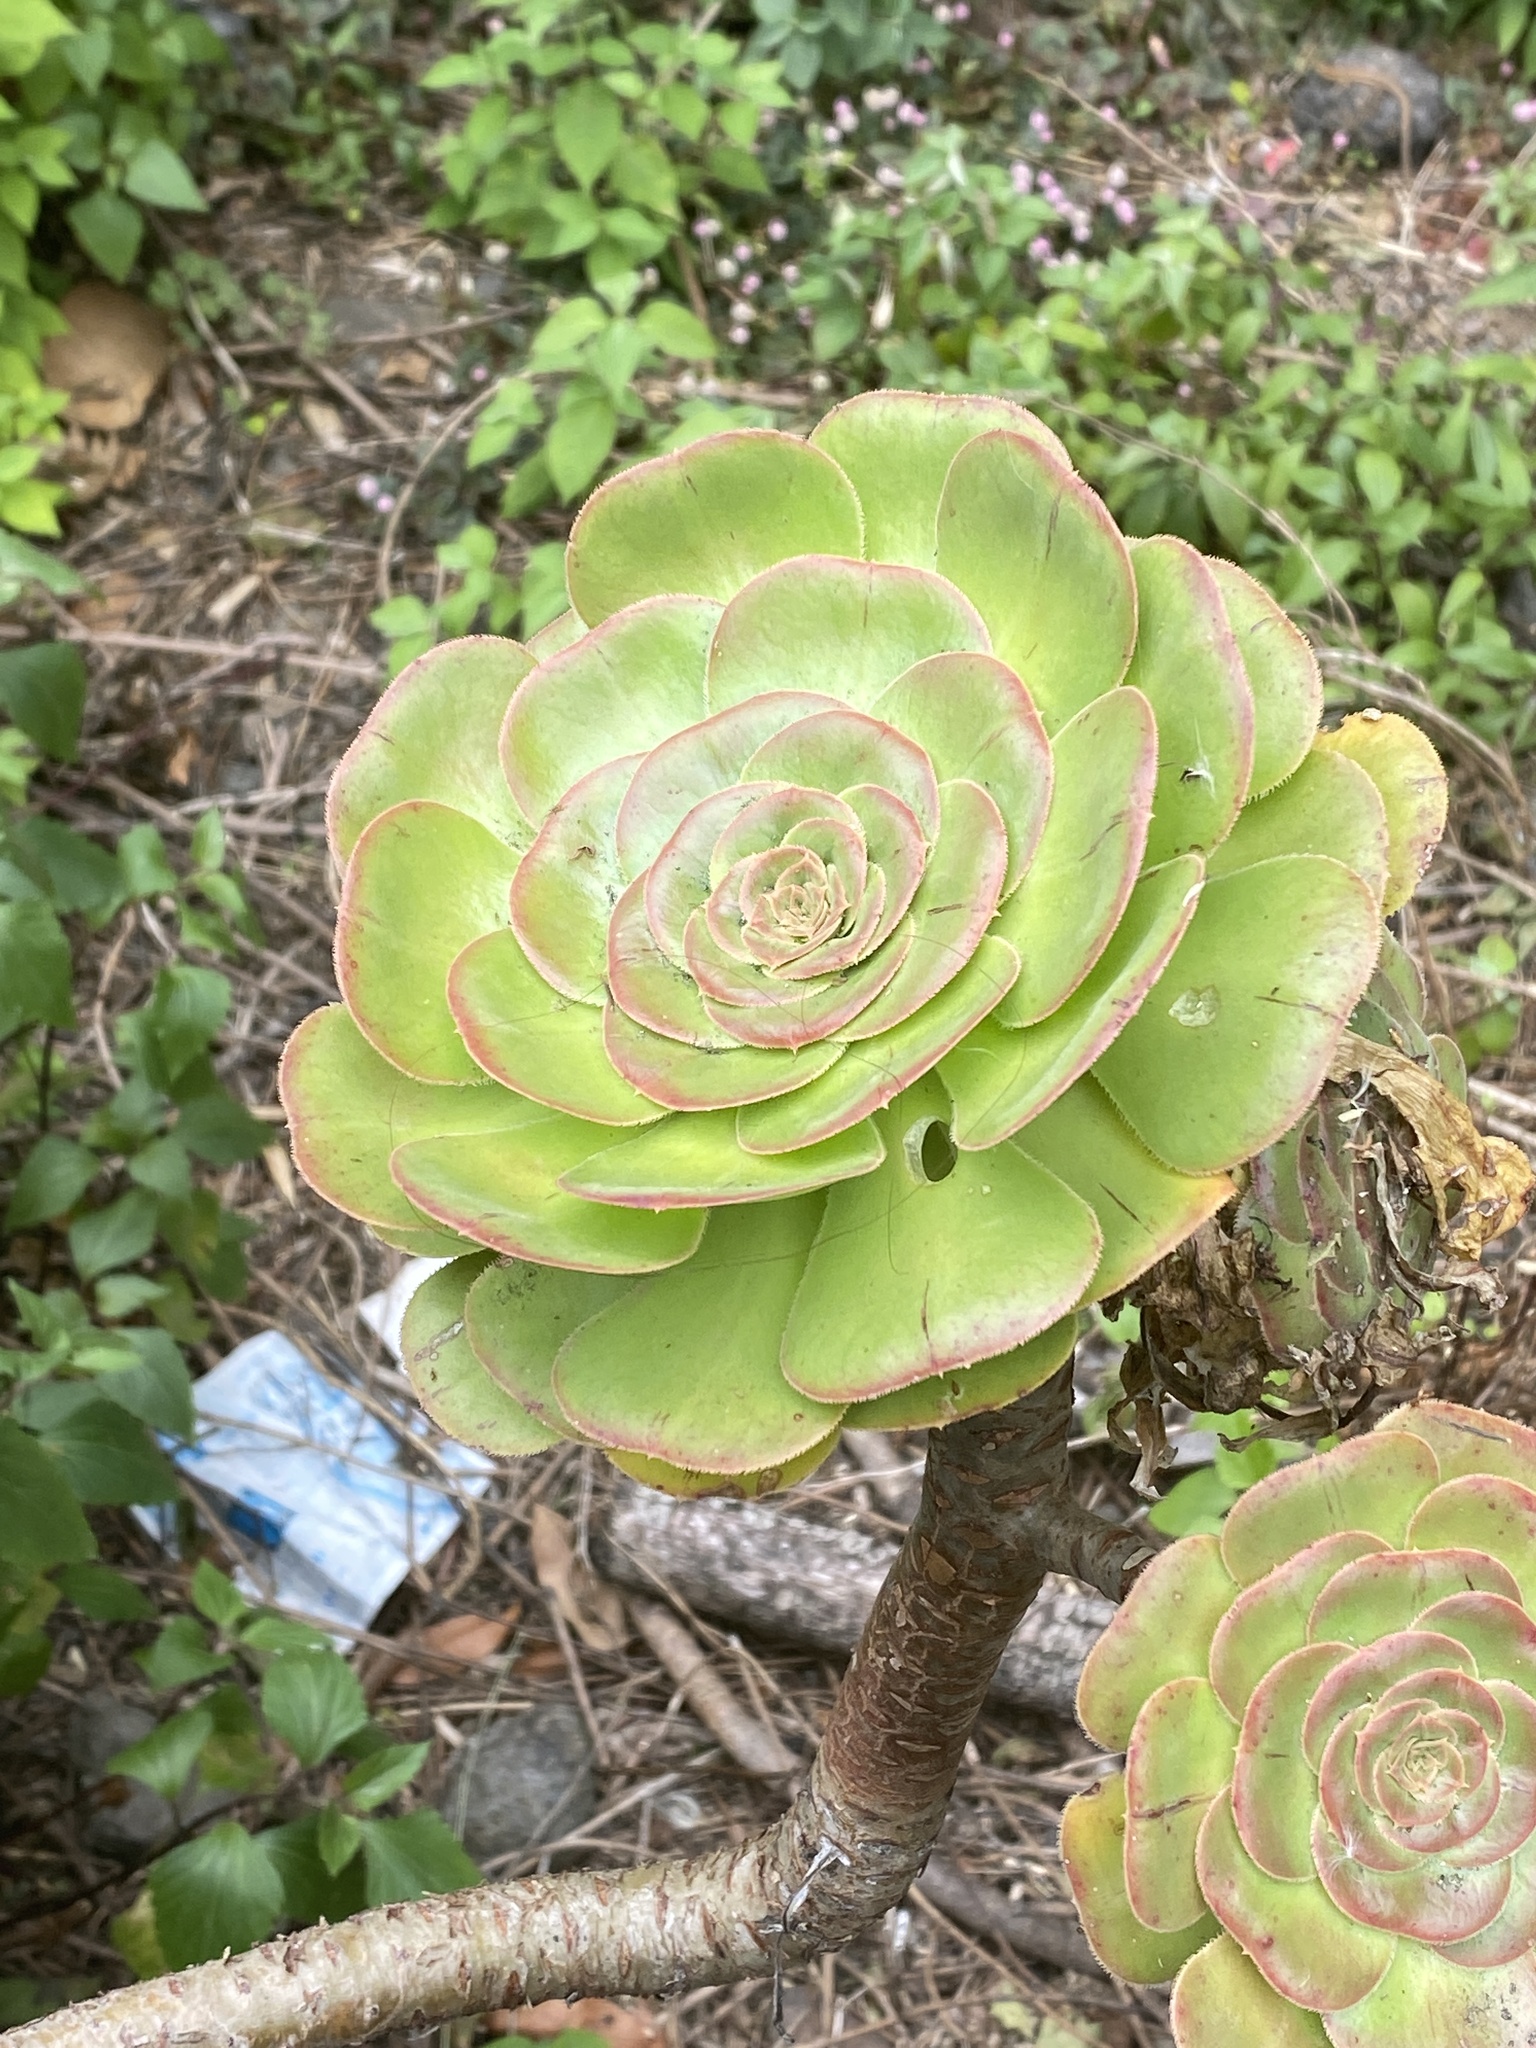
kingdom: Plantae
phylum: Tracheophyta
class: Magnoliopsida
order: Saxifragales
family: Crassulaceae
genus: Aeonium
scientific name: Aeonium arboreum
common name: Tree aeonium
